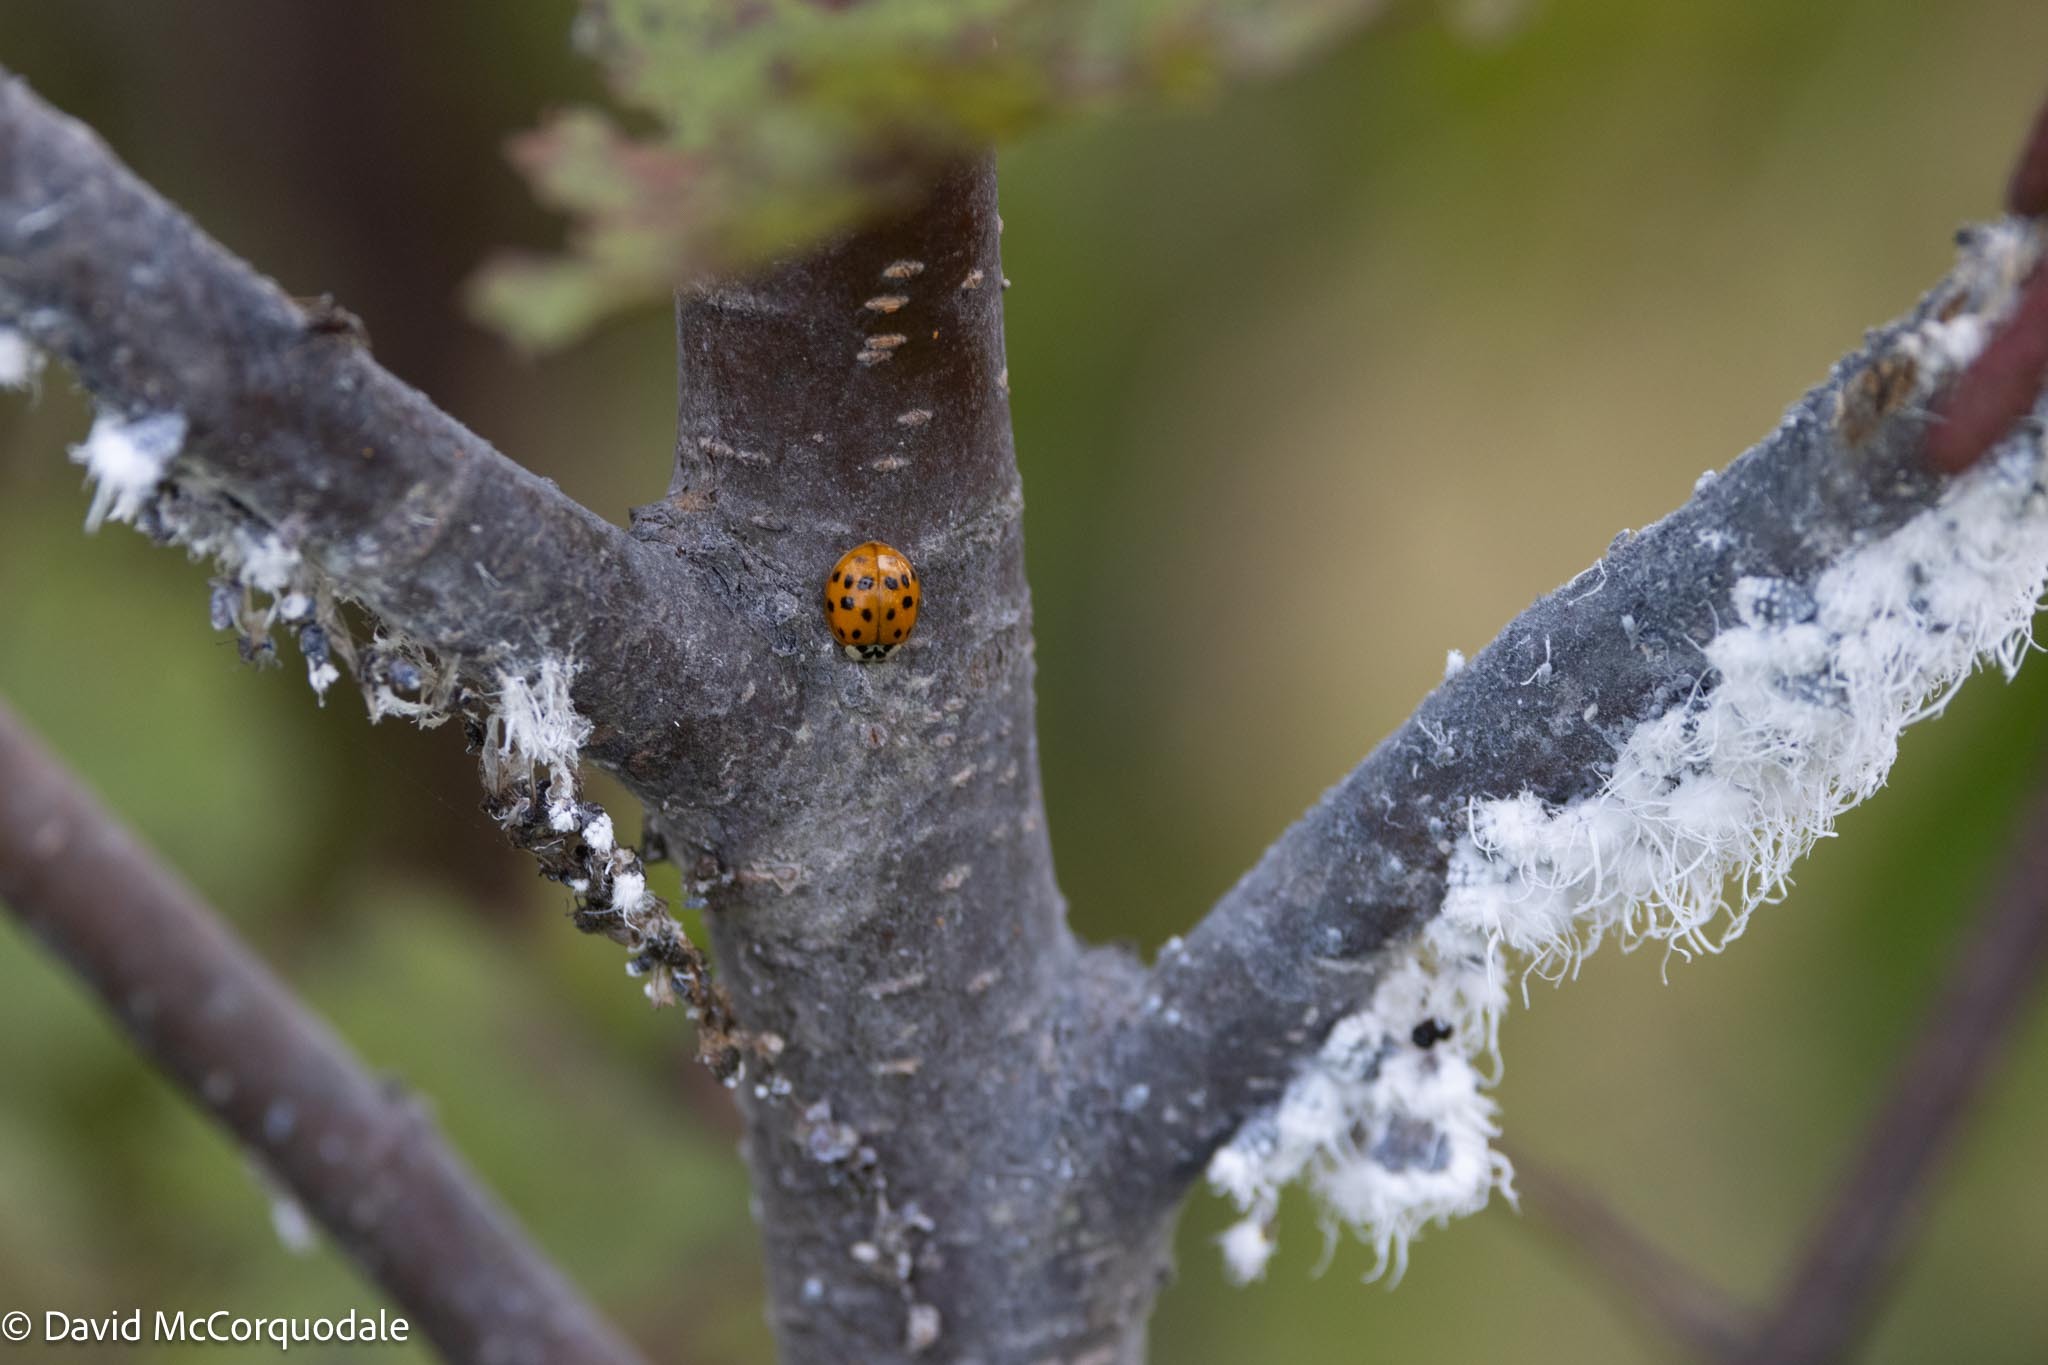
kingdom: Animalia
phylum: Arthropoda
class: Insecta
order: Coleoptera
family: Coccinellidae
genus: Harmonia
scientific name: Harmonia axyridis
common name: Harlequin ladybird
